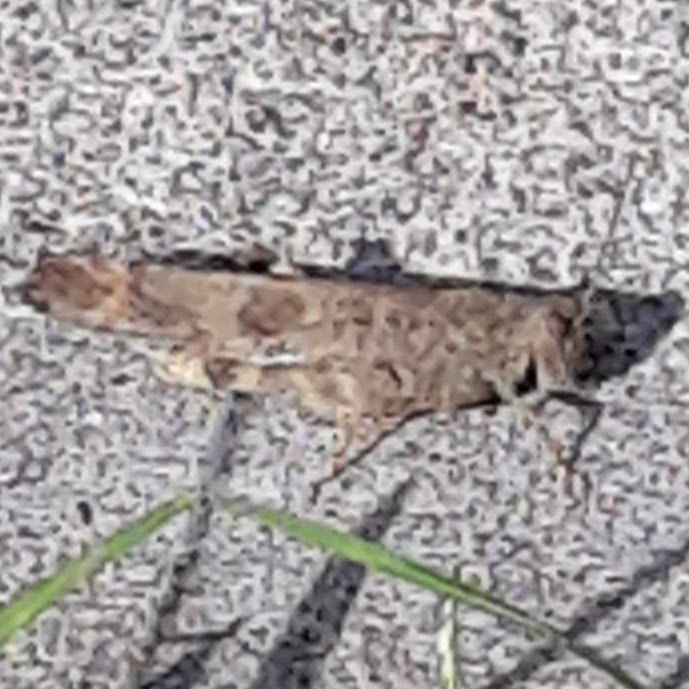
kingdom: Animalia
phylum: Arthropoda
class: Insecta
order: Orthoptera
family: Acrididae
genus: Dissosteira
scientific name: Dissosteira carolina
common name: Carolina grasshopper
